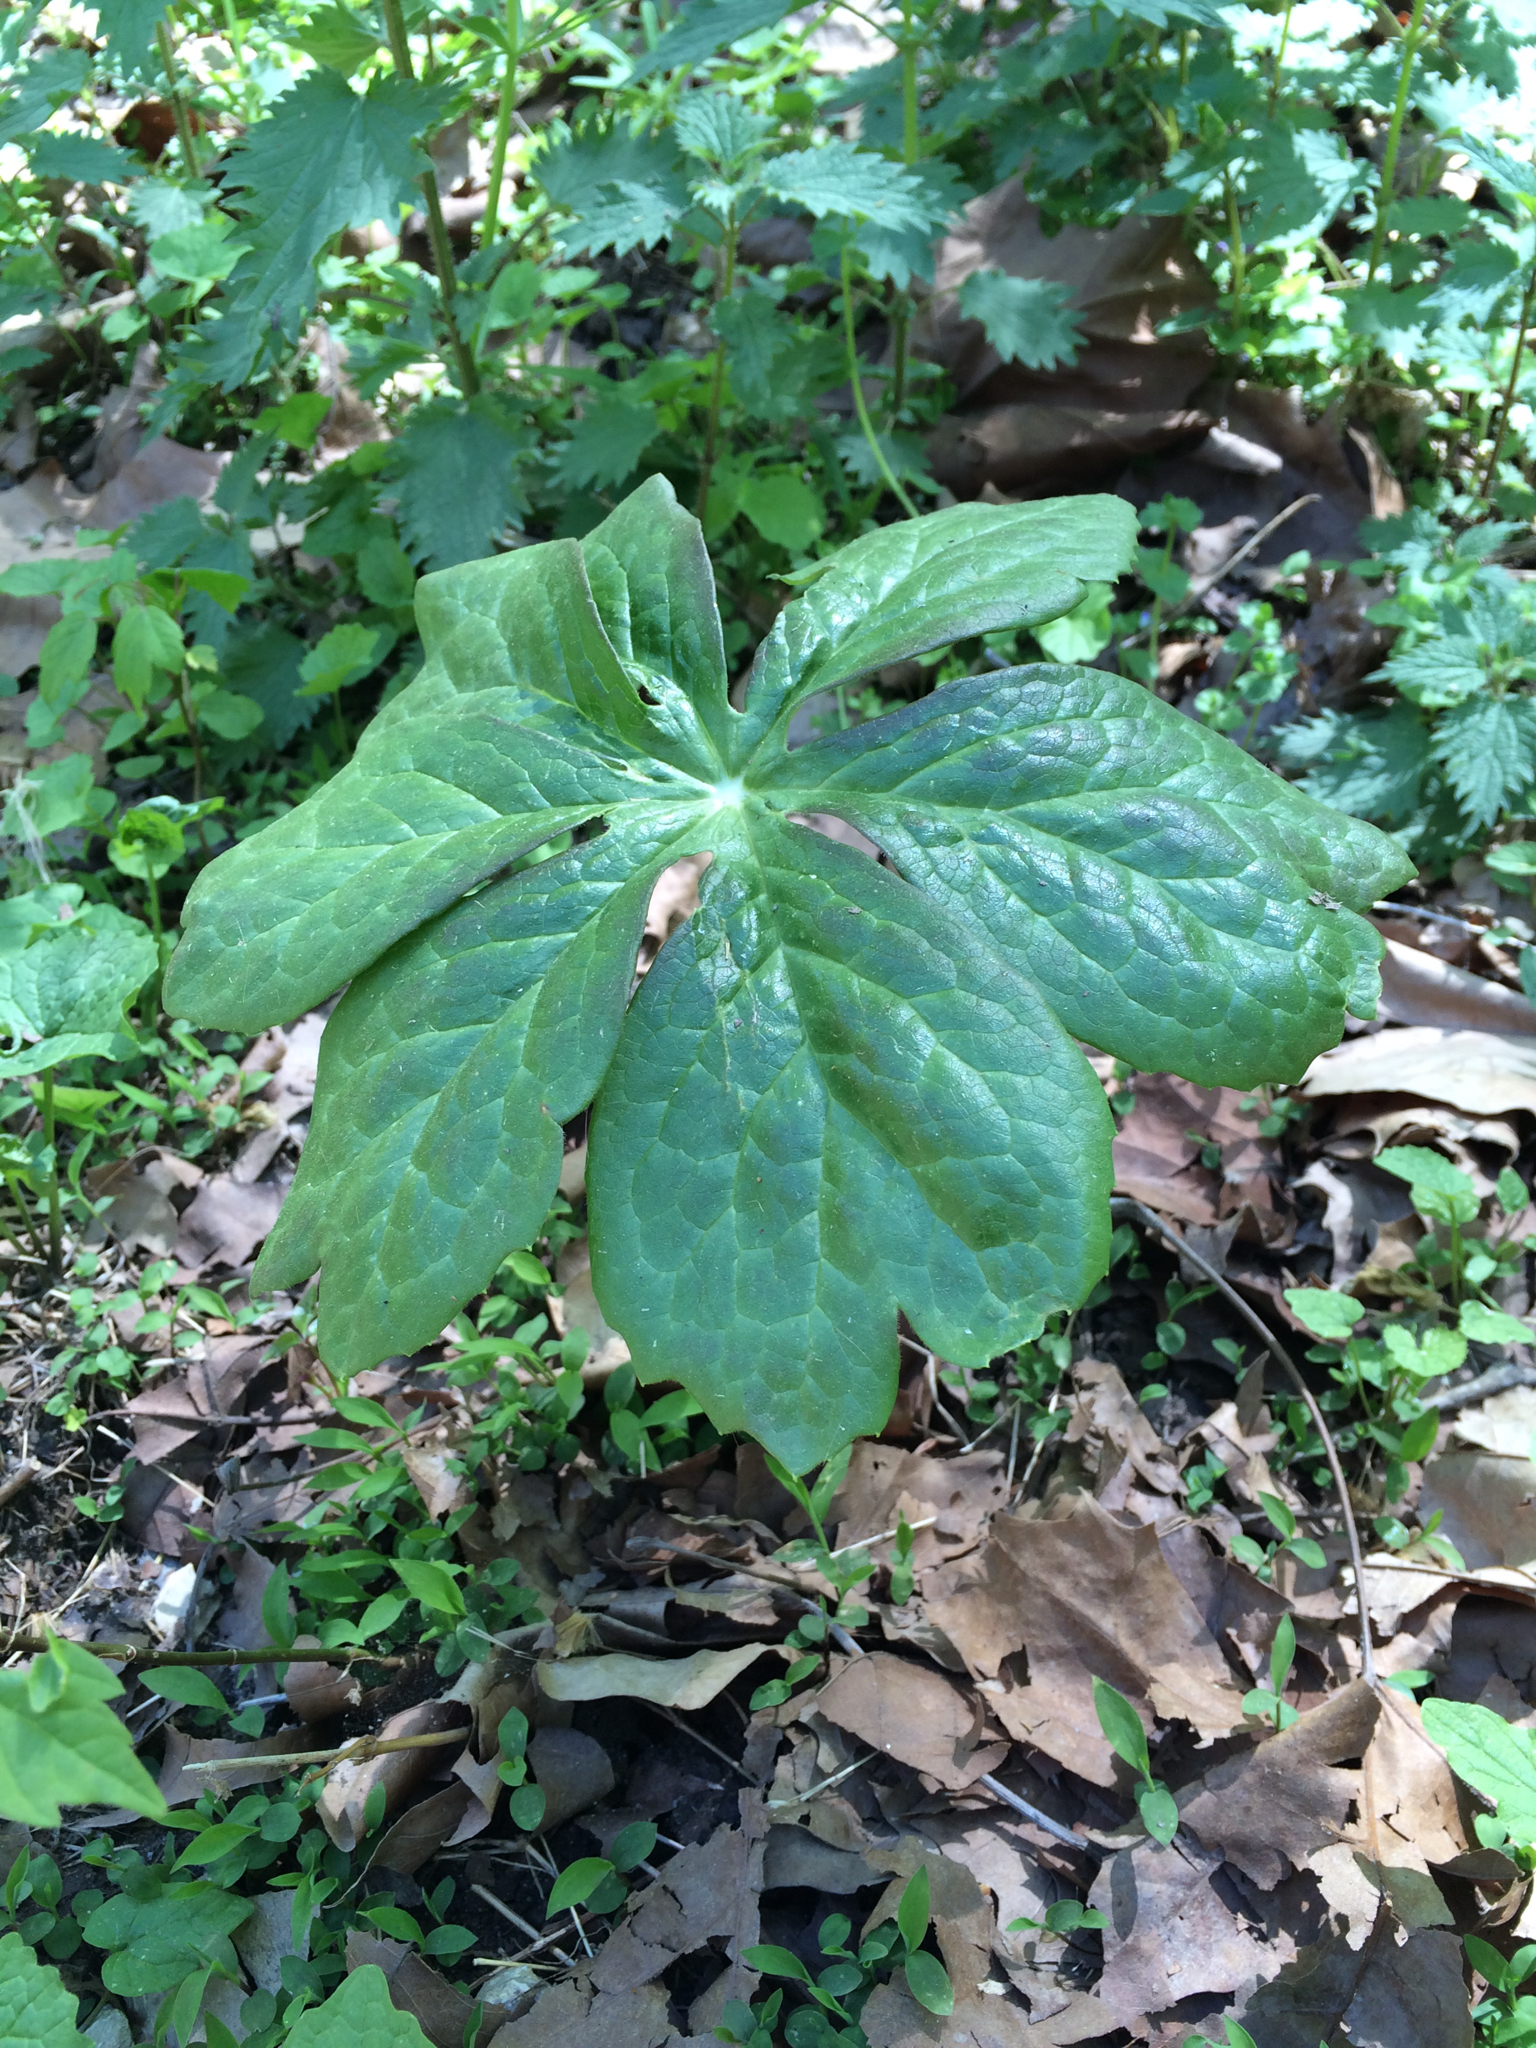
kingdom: Plantae
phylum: Tracheophyta
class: Magnoliopsida
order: Ranunculales
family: Berberidaceae
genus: Podophyllum
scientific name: Podophyllum peltatum
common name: Wild mandrake
